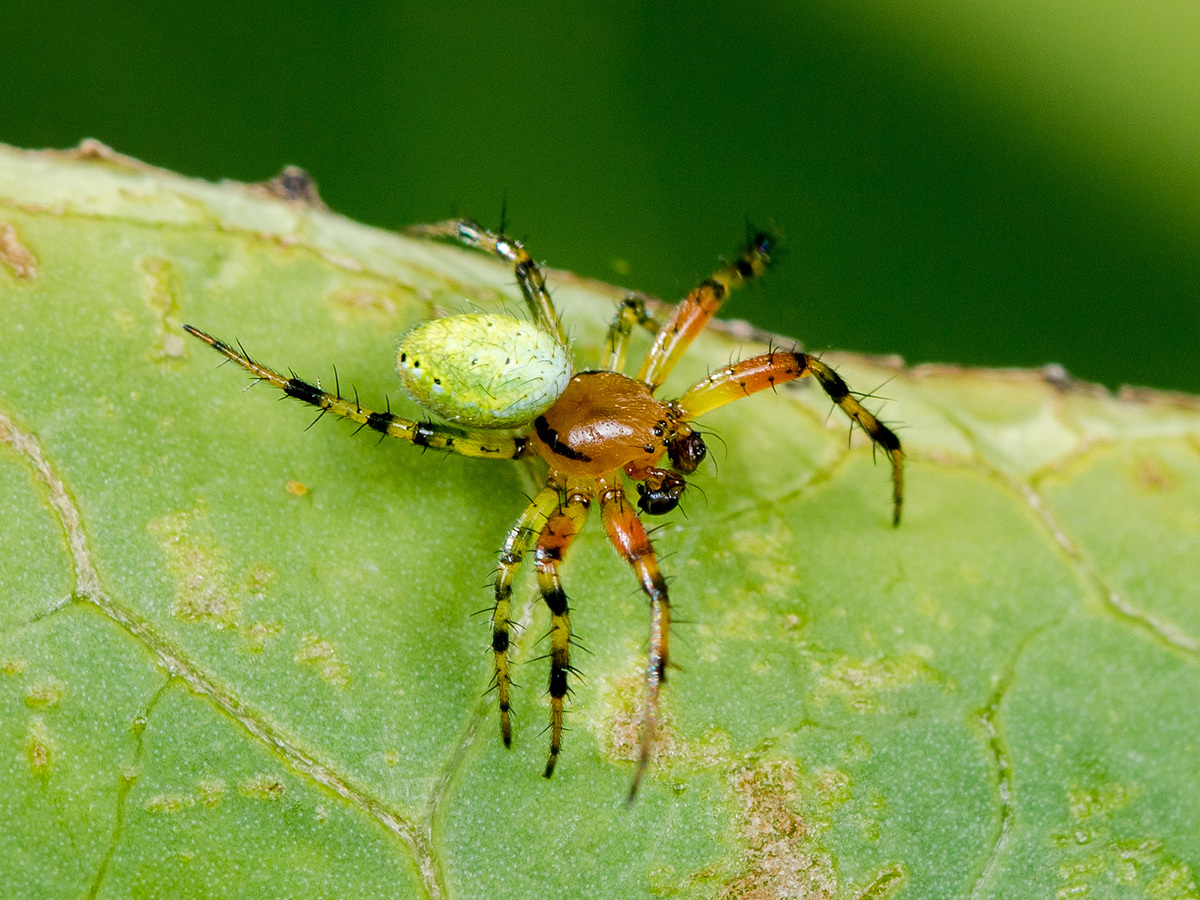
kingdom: Animalia
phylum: Arthropoda
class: Arachnida
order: Araneae
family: Araneidae
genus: Araniella
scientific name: Araniella villanii
